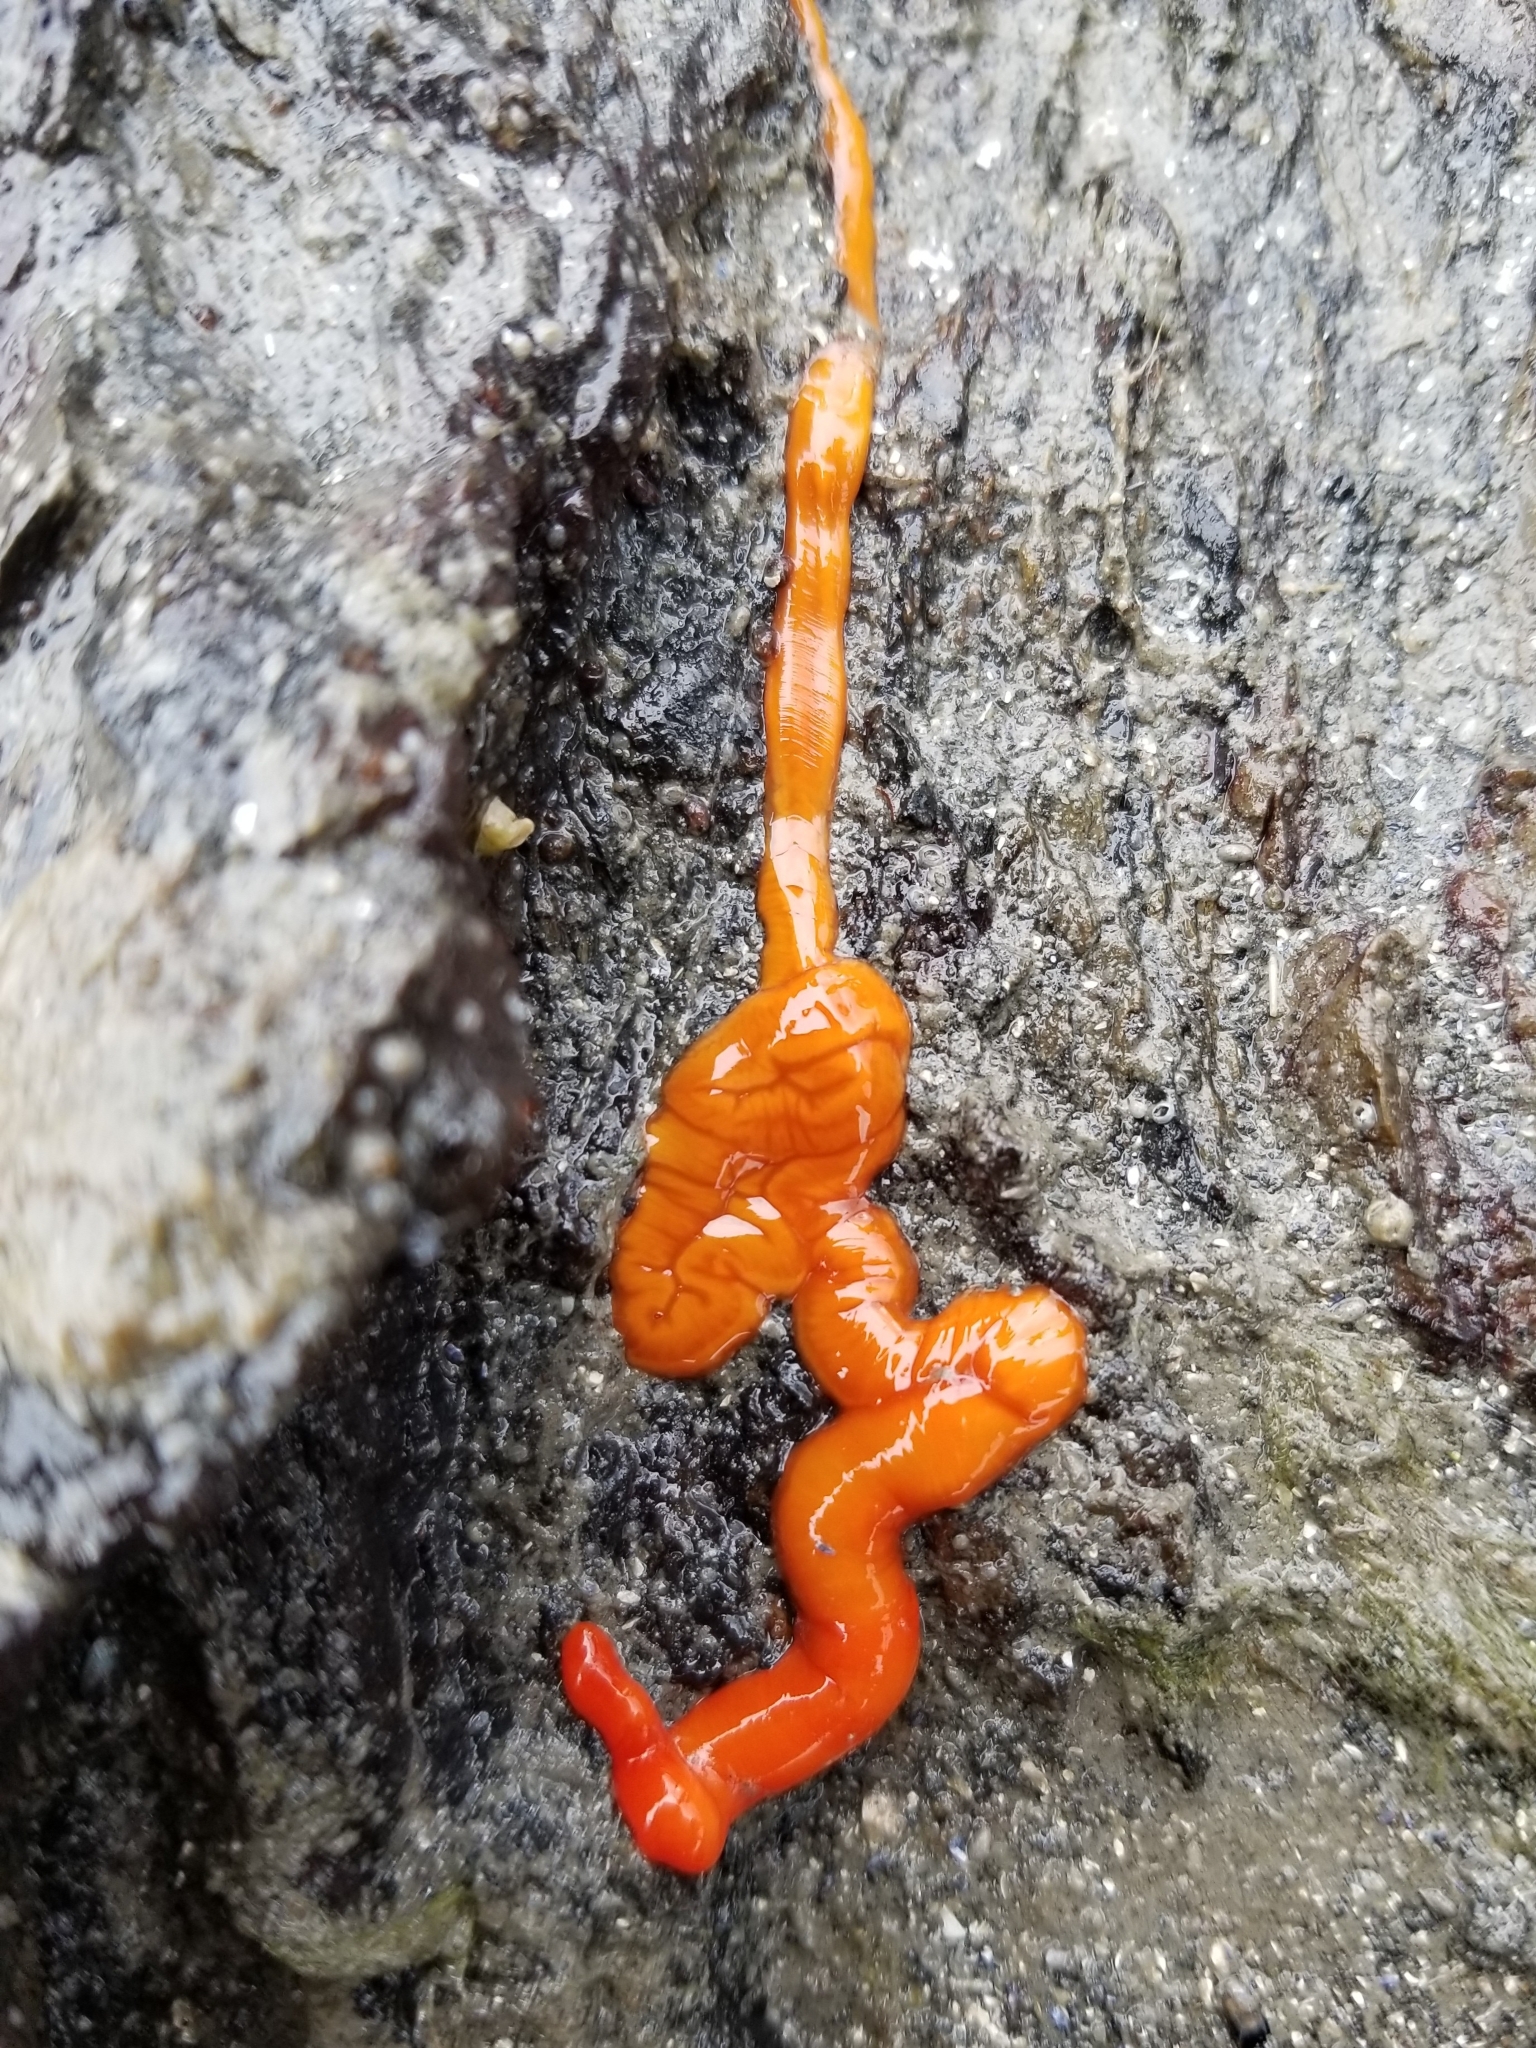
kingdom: Animalia
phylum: Nemertea
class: Palaeonemertea
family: Tubulanidae
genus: Tubulanus
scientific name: Tubulanus polymorphus
